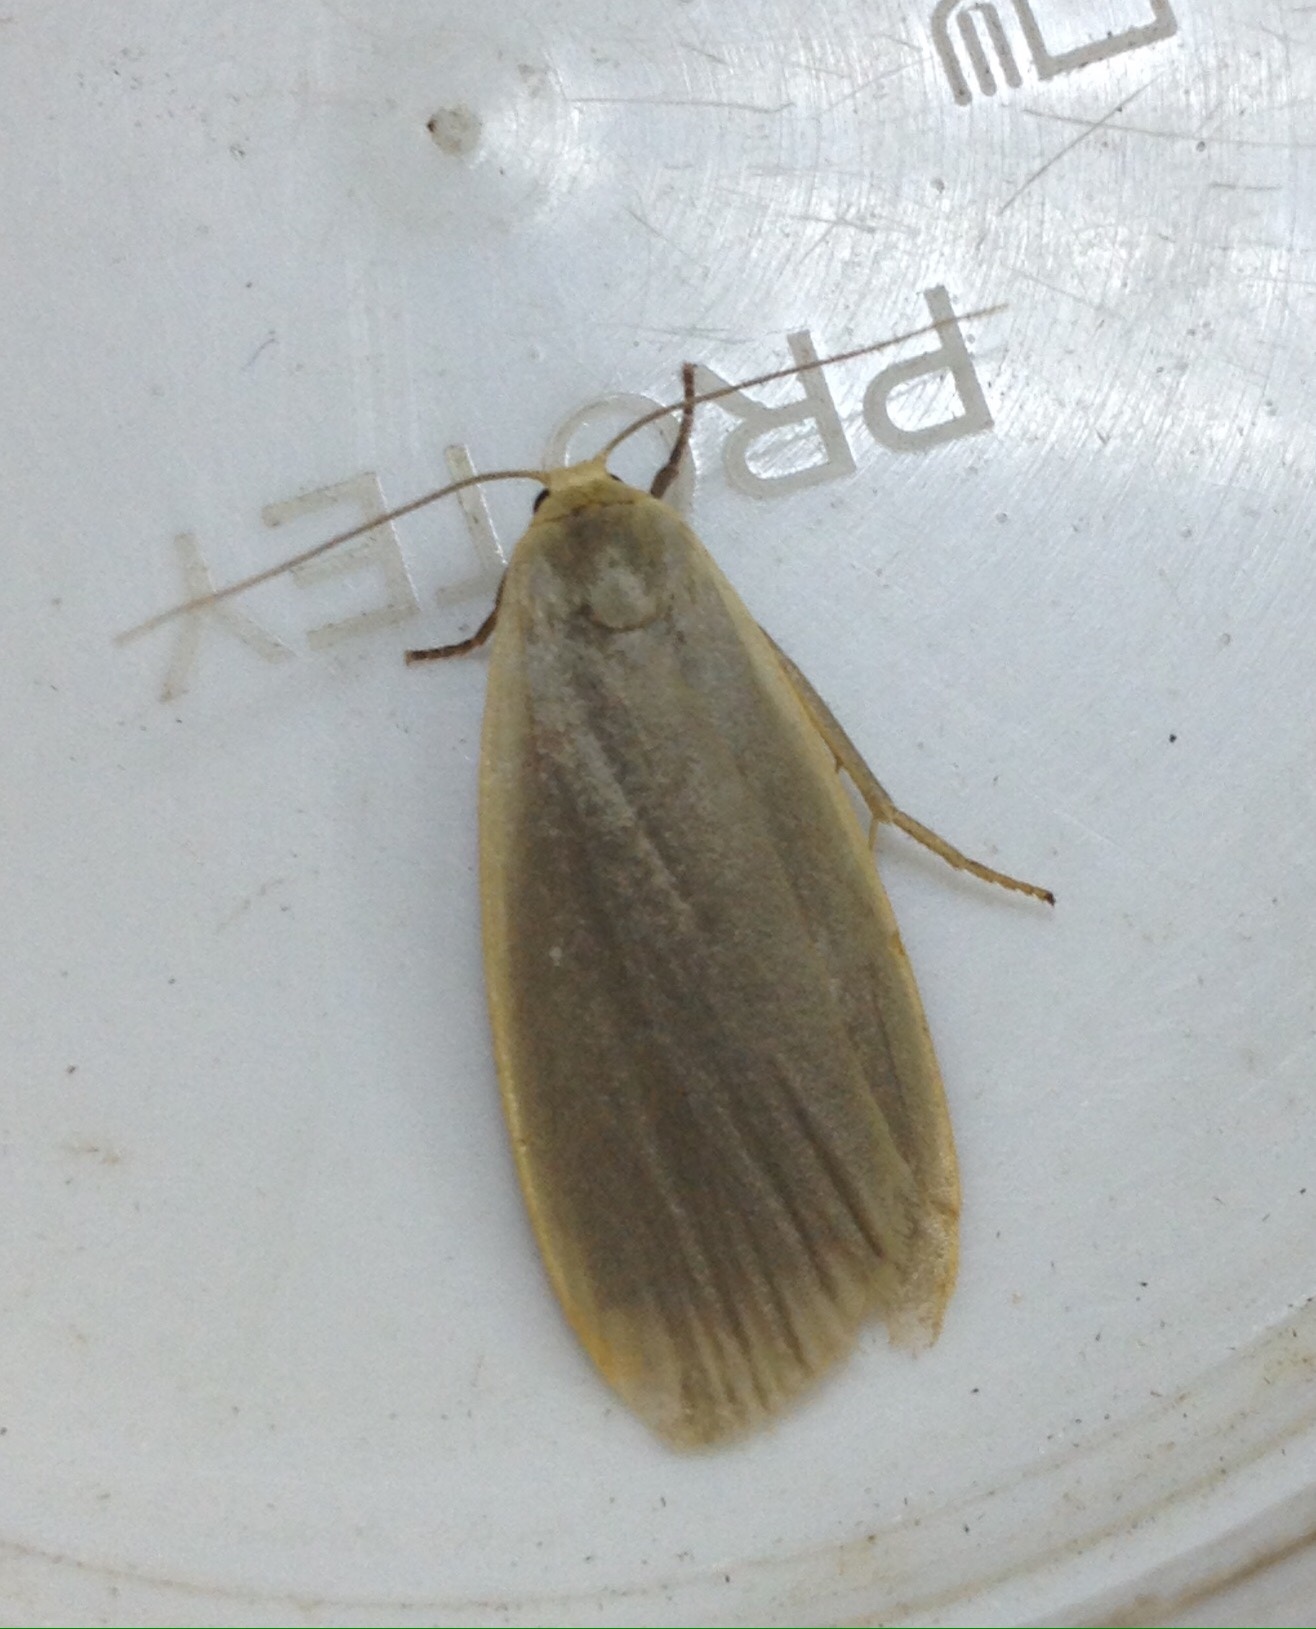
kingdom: Animalia
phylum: Arthropoda
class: Insecta
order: Lepidoptera
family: Erebidae
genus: Collita
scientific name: Collita griseola
